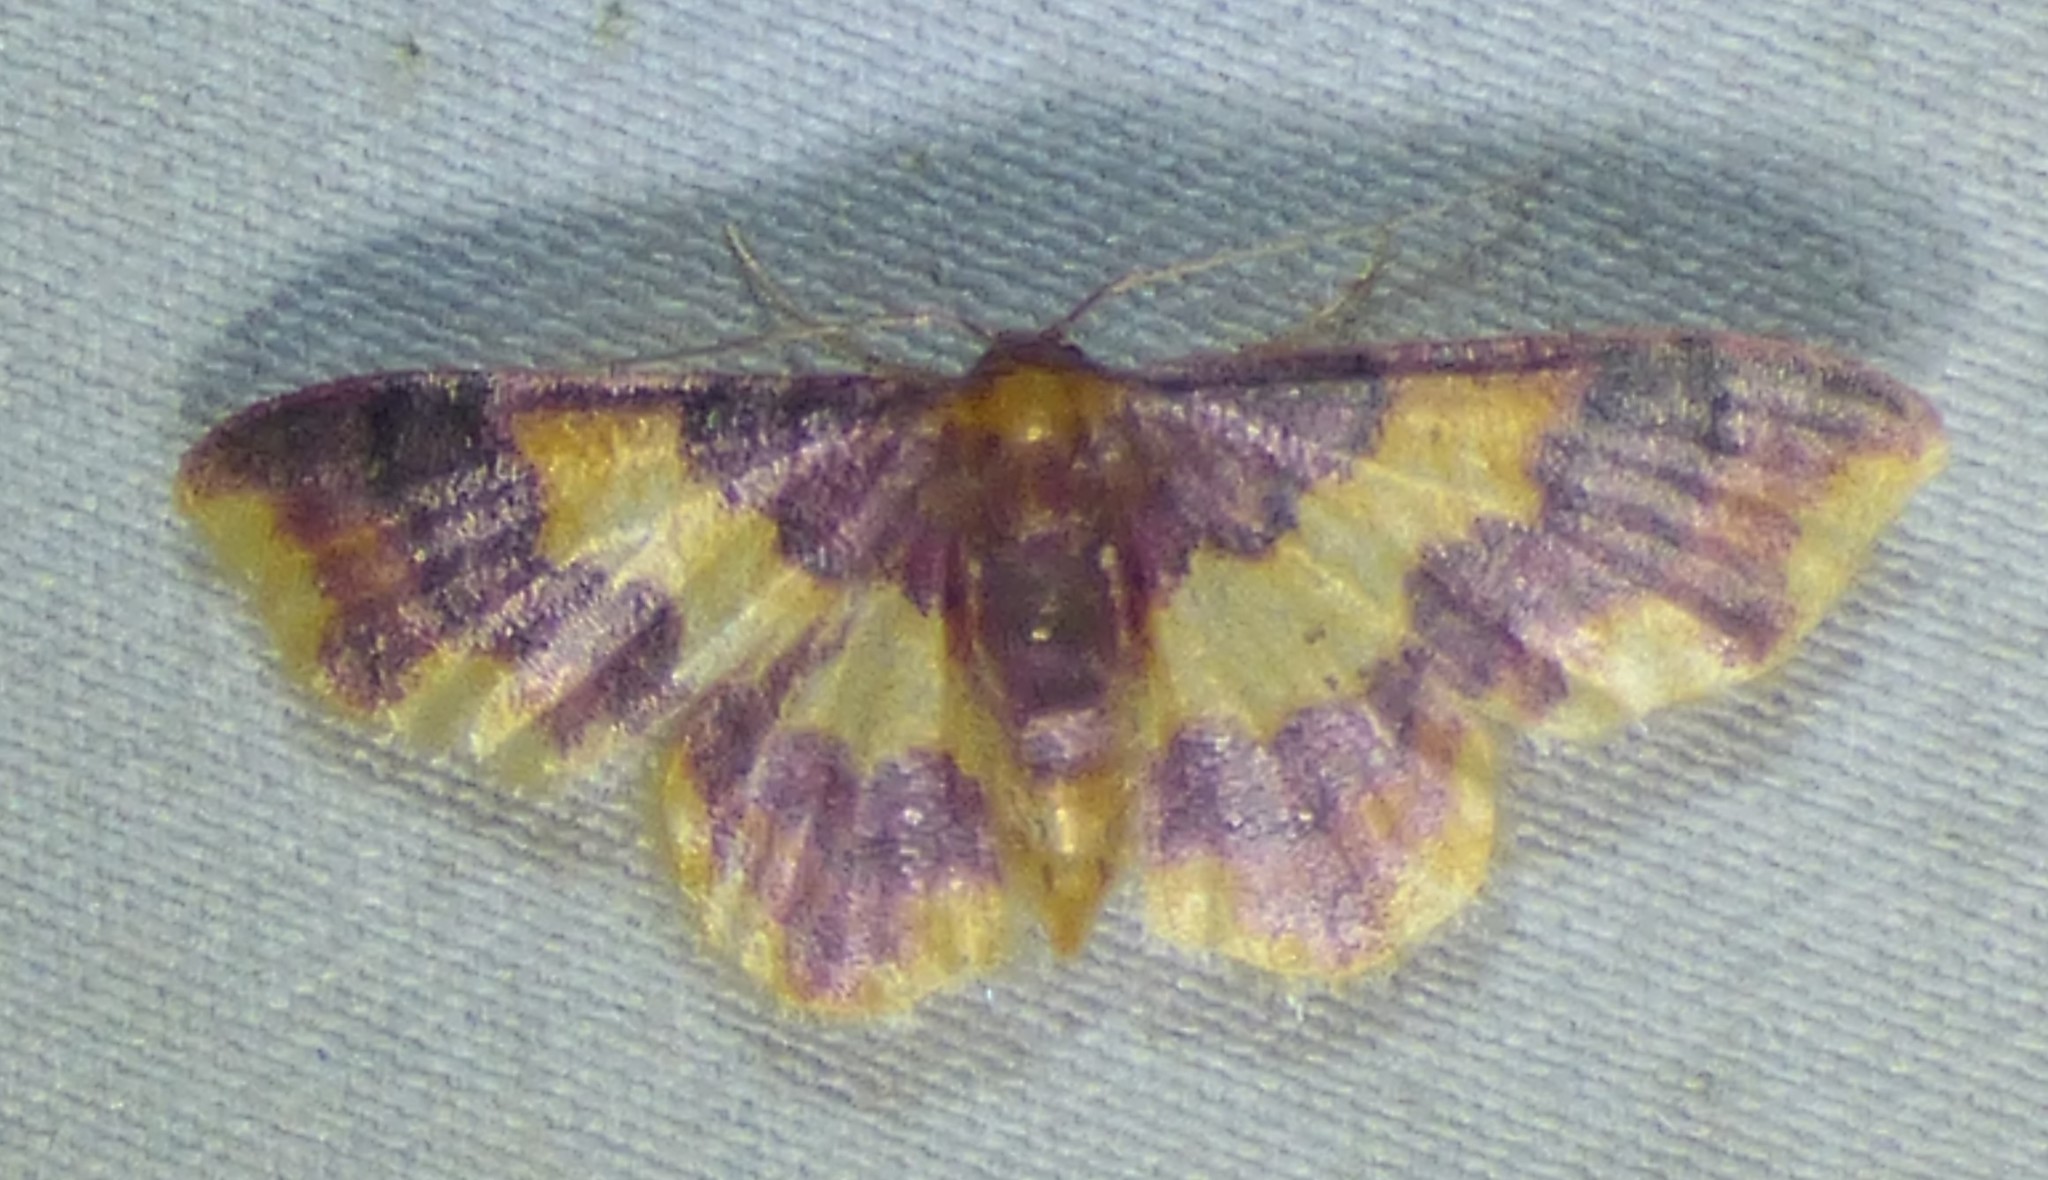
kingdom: Animalia
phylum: Arthropoda
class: Insecta
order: Lepidoptera
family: Geometridae
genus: Lophosis
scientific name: Lophosis labeculata
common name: Stained lophosis moth
